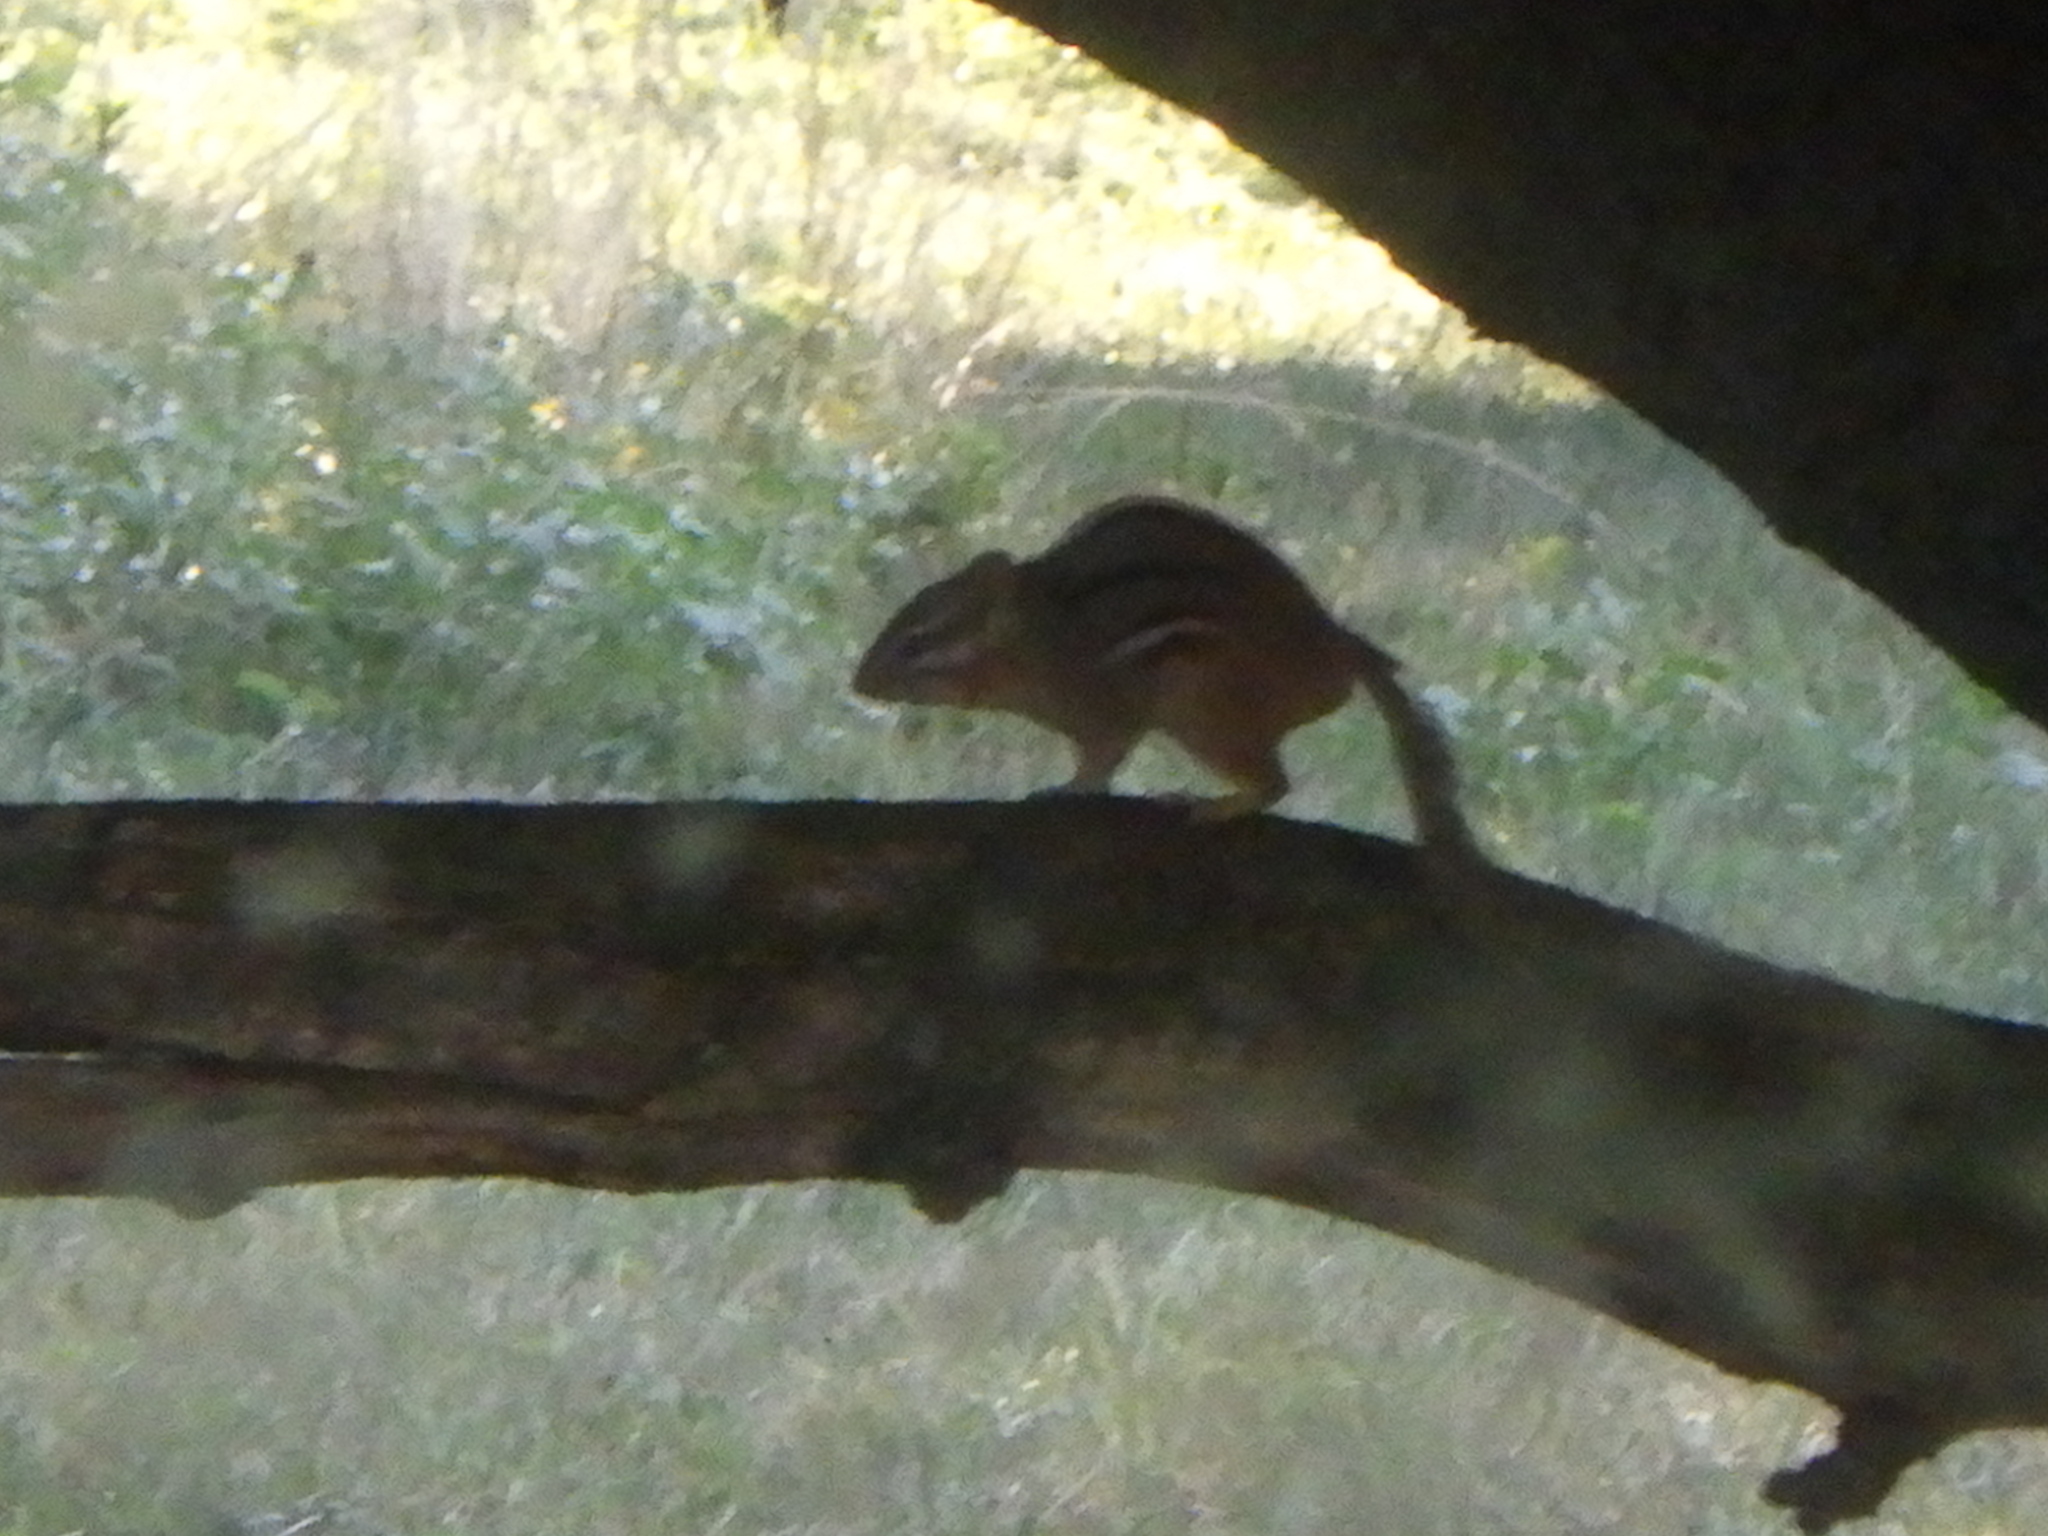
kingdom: Animalia
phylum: Chordata
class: Mammalia
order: Rodentia
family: Sciuridae
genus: Tamias
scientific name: Tamias striatus
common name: Eastern chipmunk
